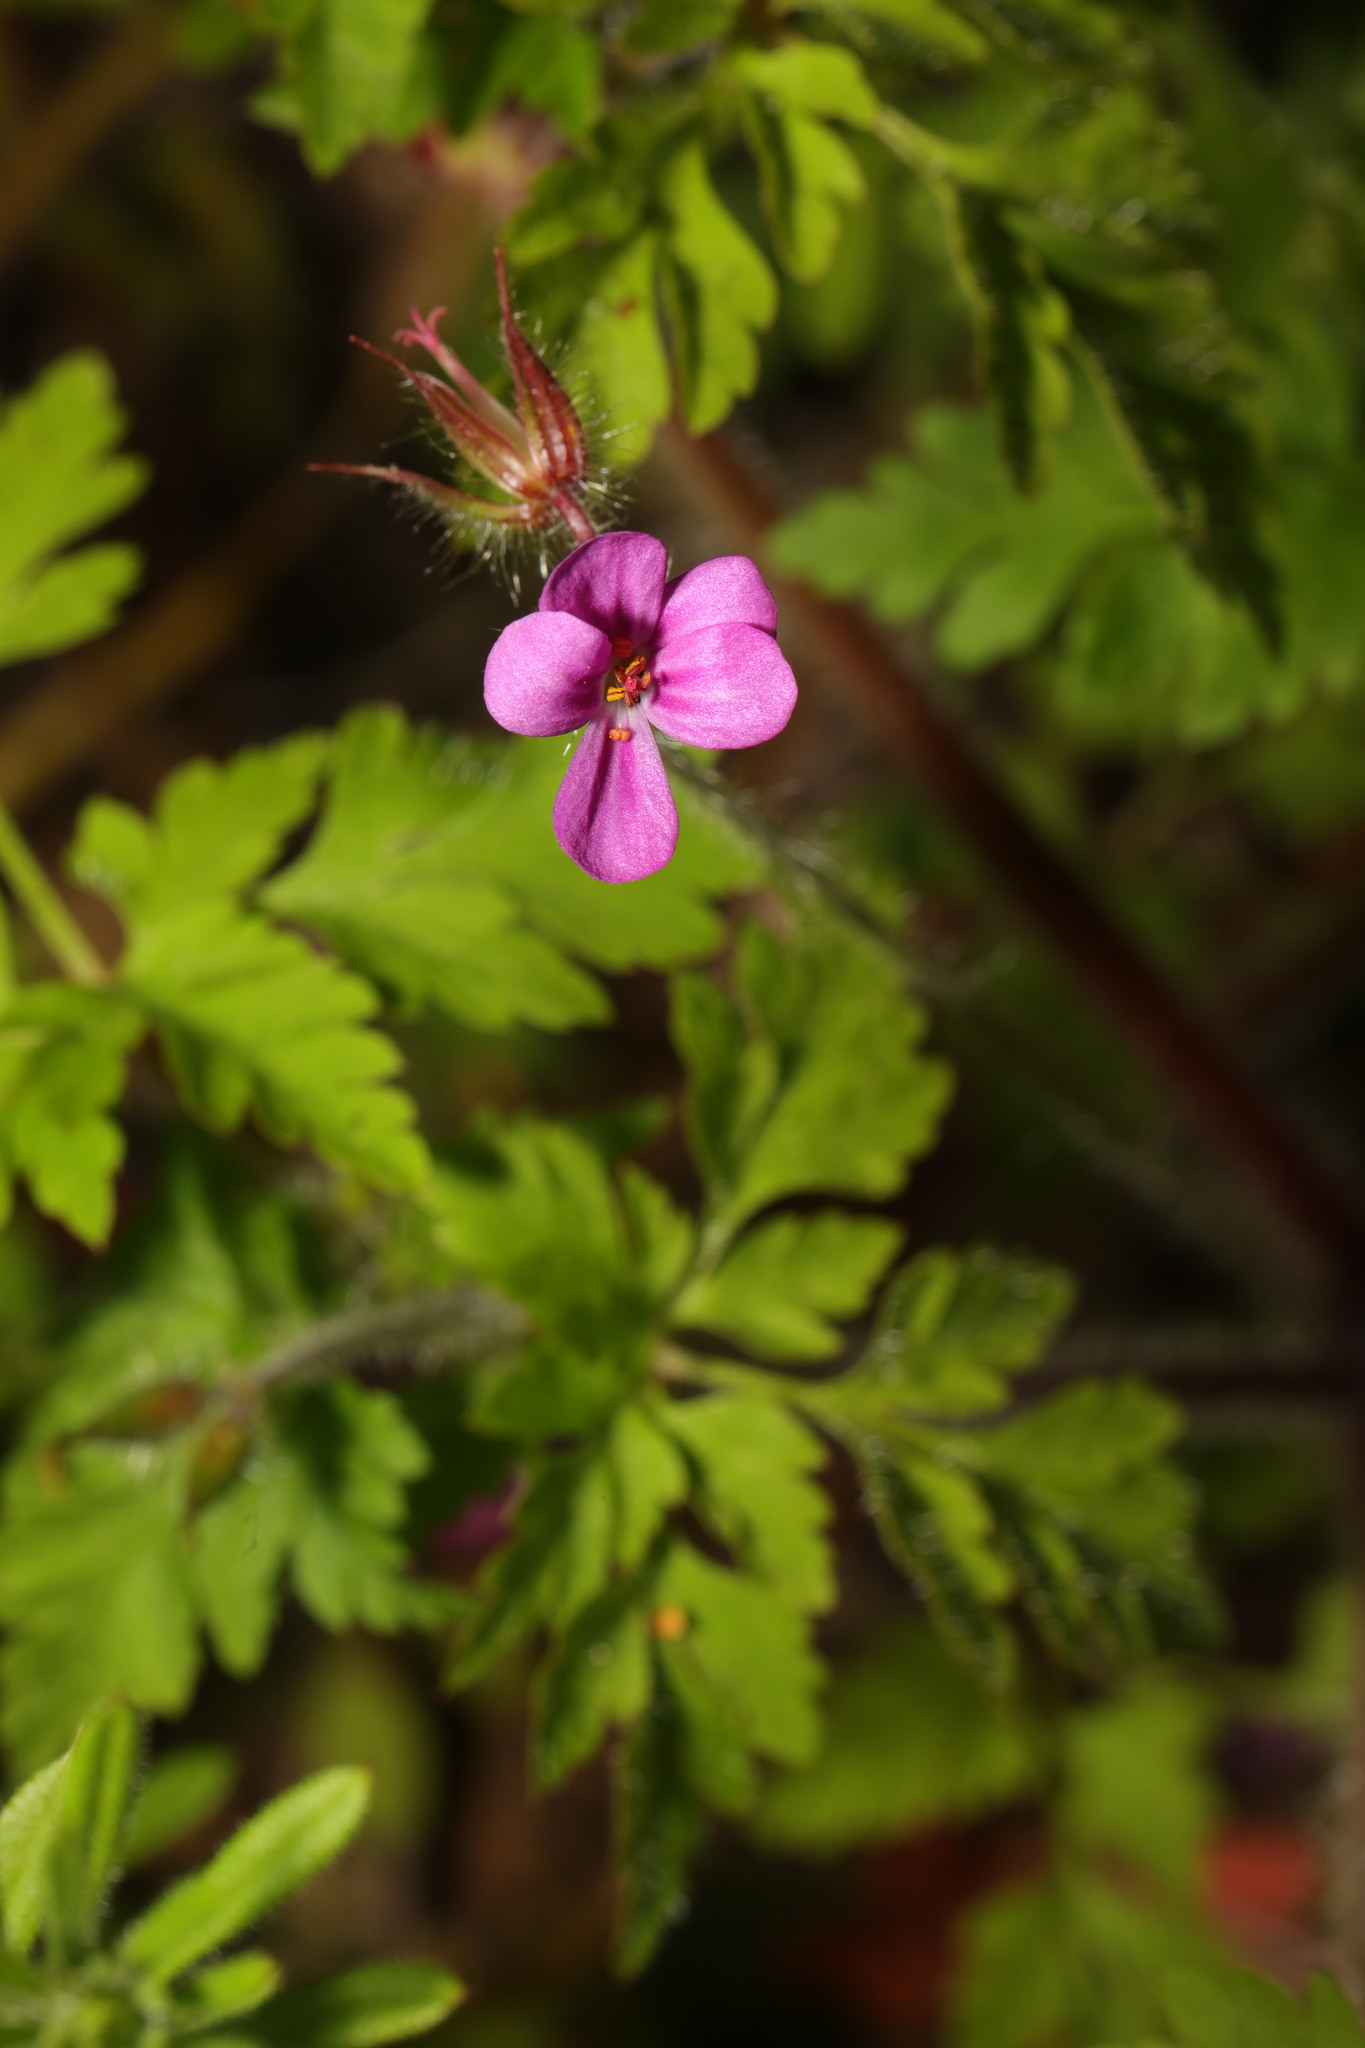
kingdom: Plantae
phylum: Tracheophyta
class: Magnoliopsida
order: Geraniales
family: Geraniaceae
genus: Geranium
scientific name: Geranium robertianum
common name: Herb-robert
